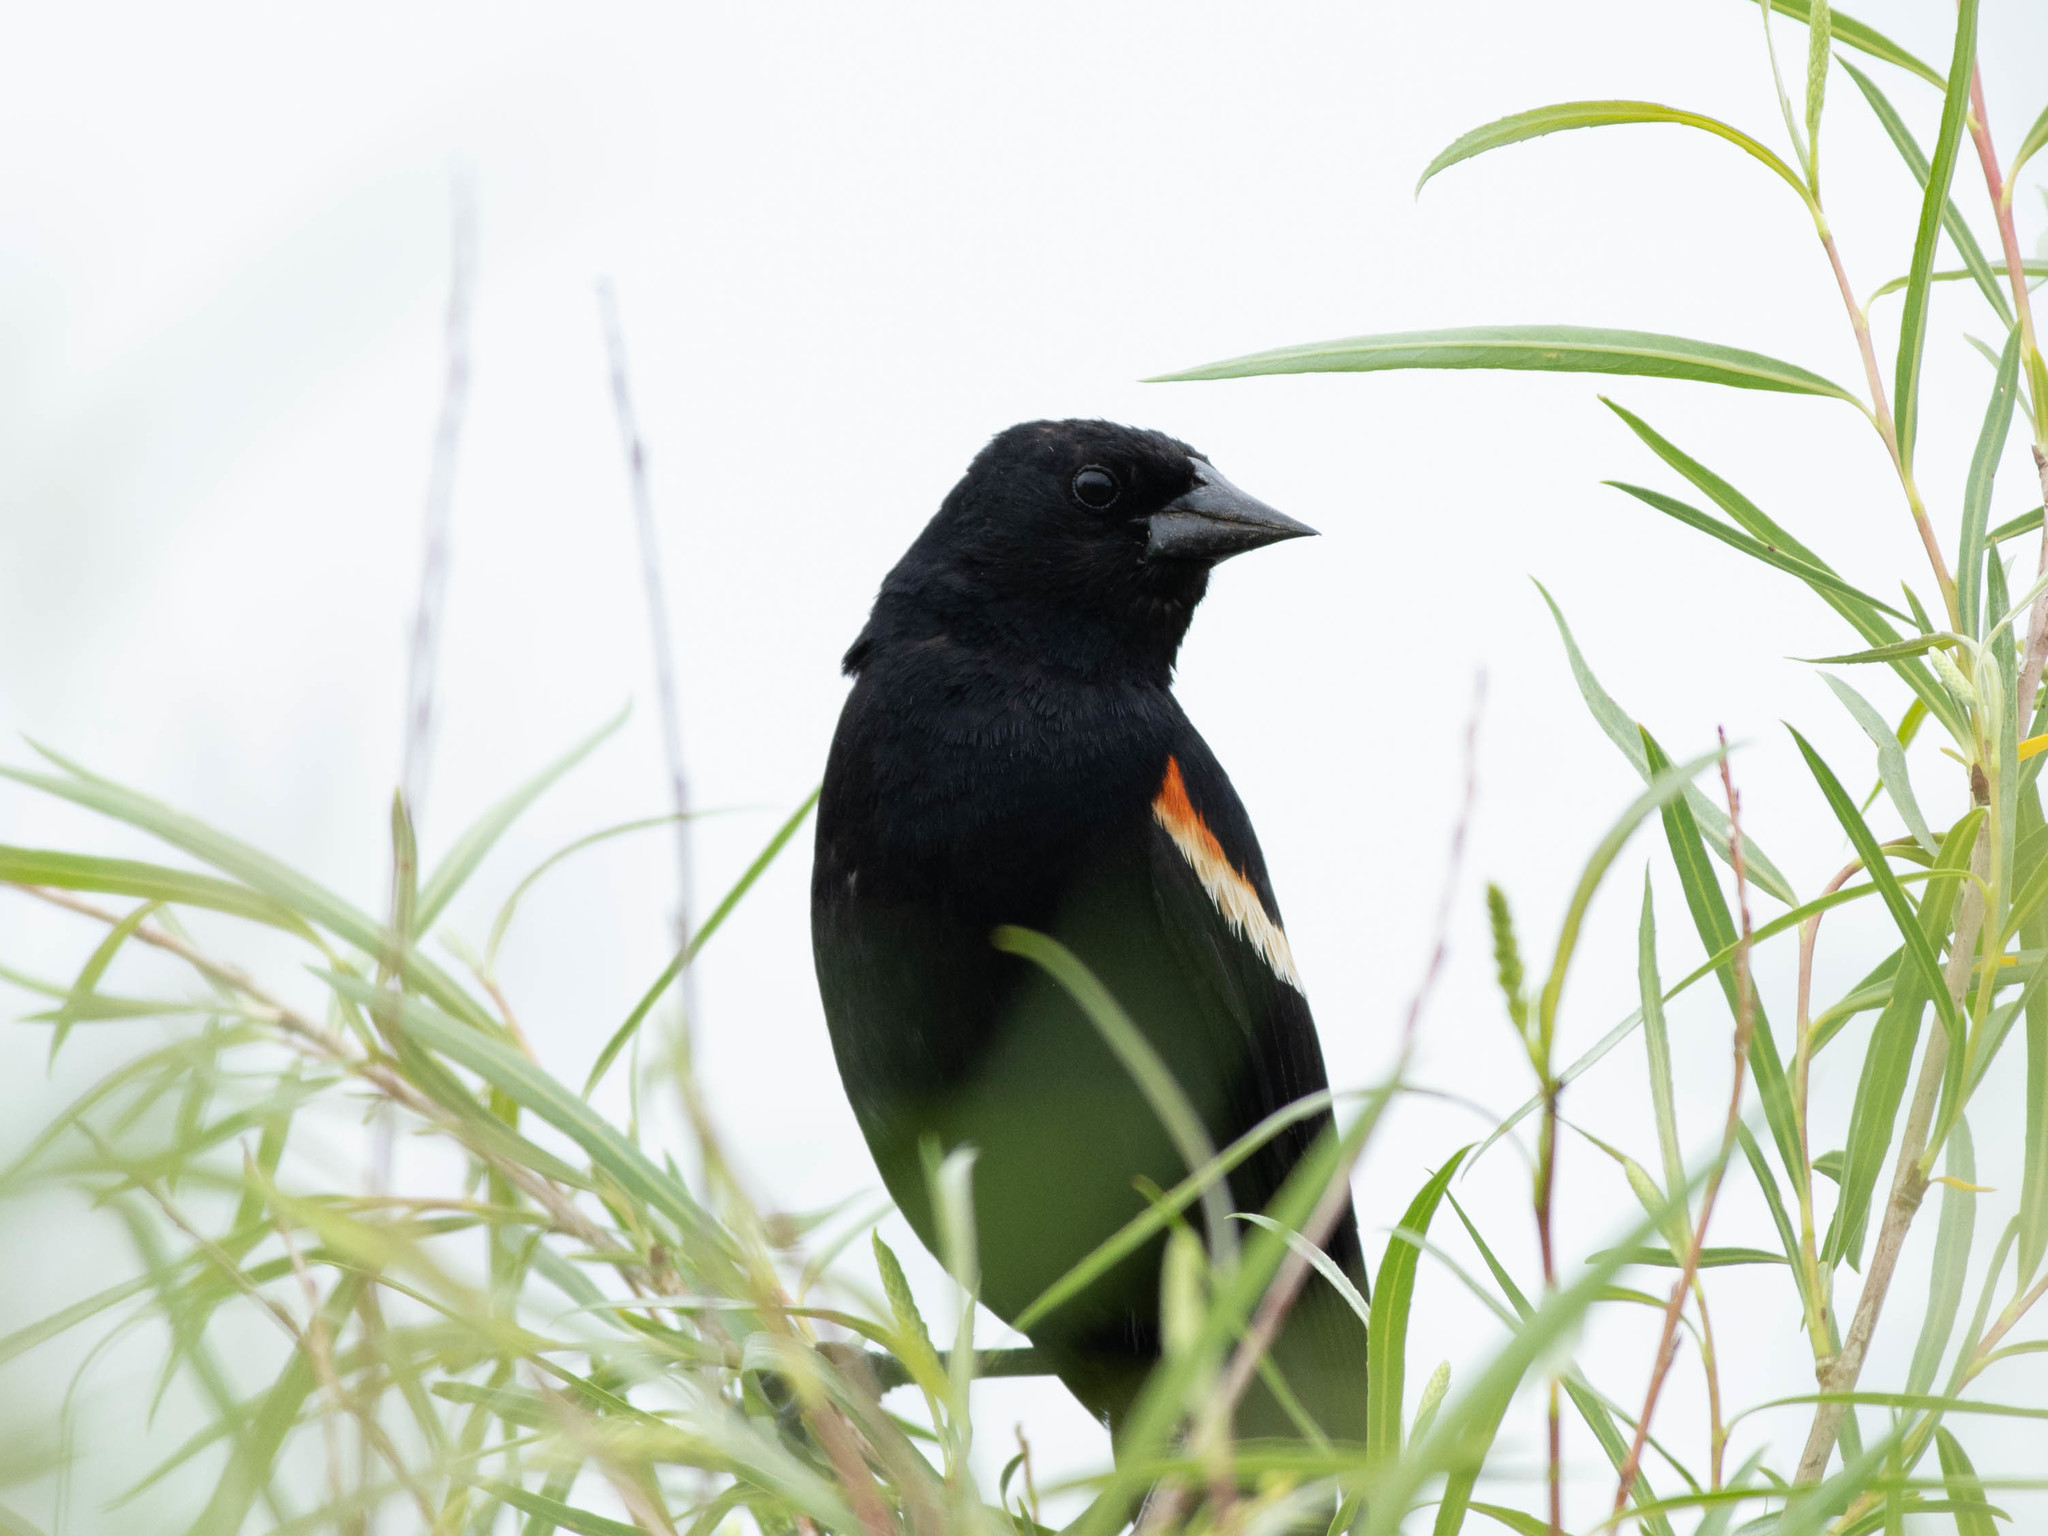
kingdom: Animalia
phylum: Chordata
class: Aves
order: Passeriformes
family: Icteridae
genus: Agelaius
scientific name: Agelaius phoeniceus
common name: Red-winged blackbird
